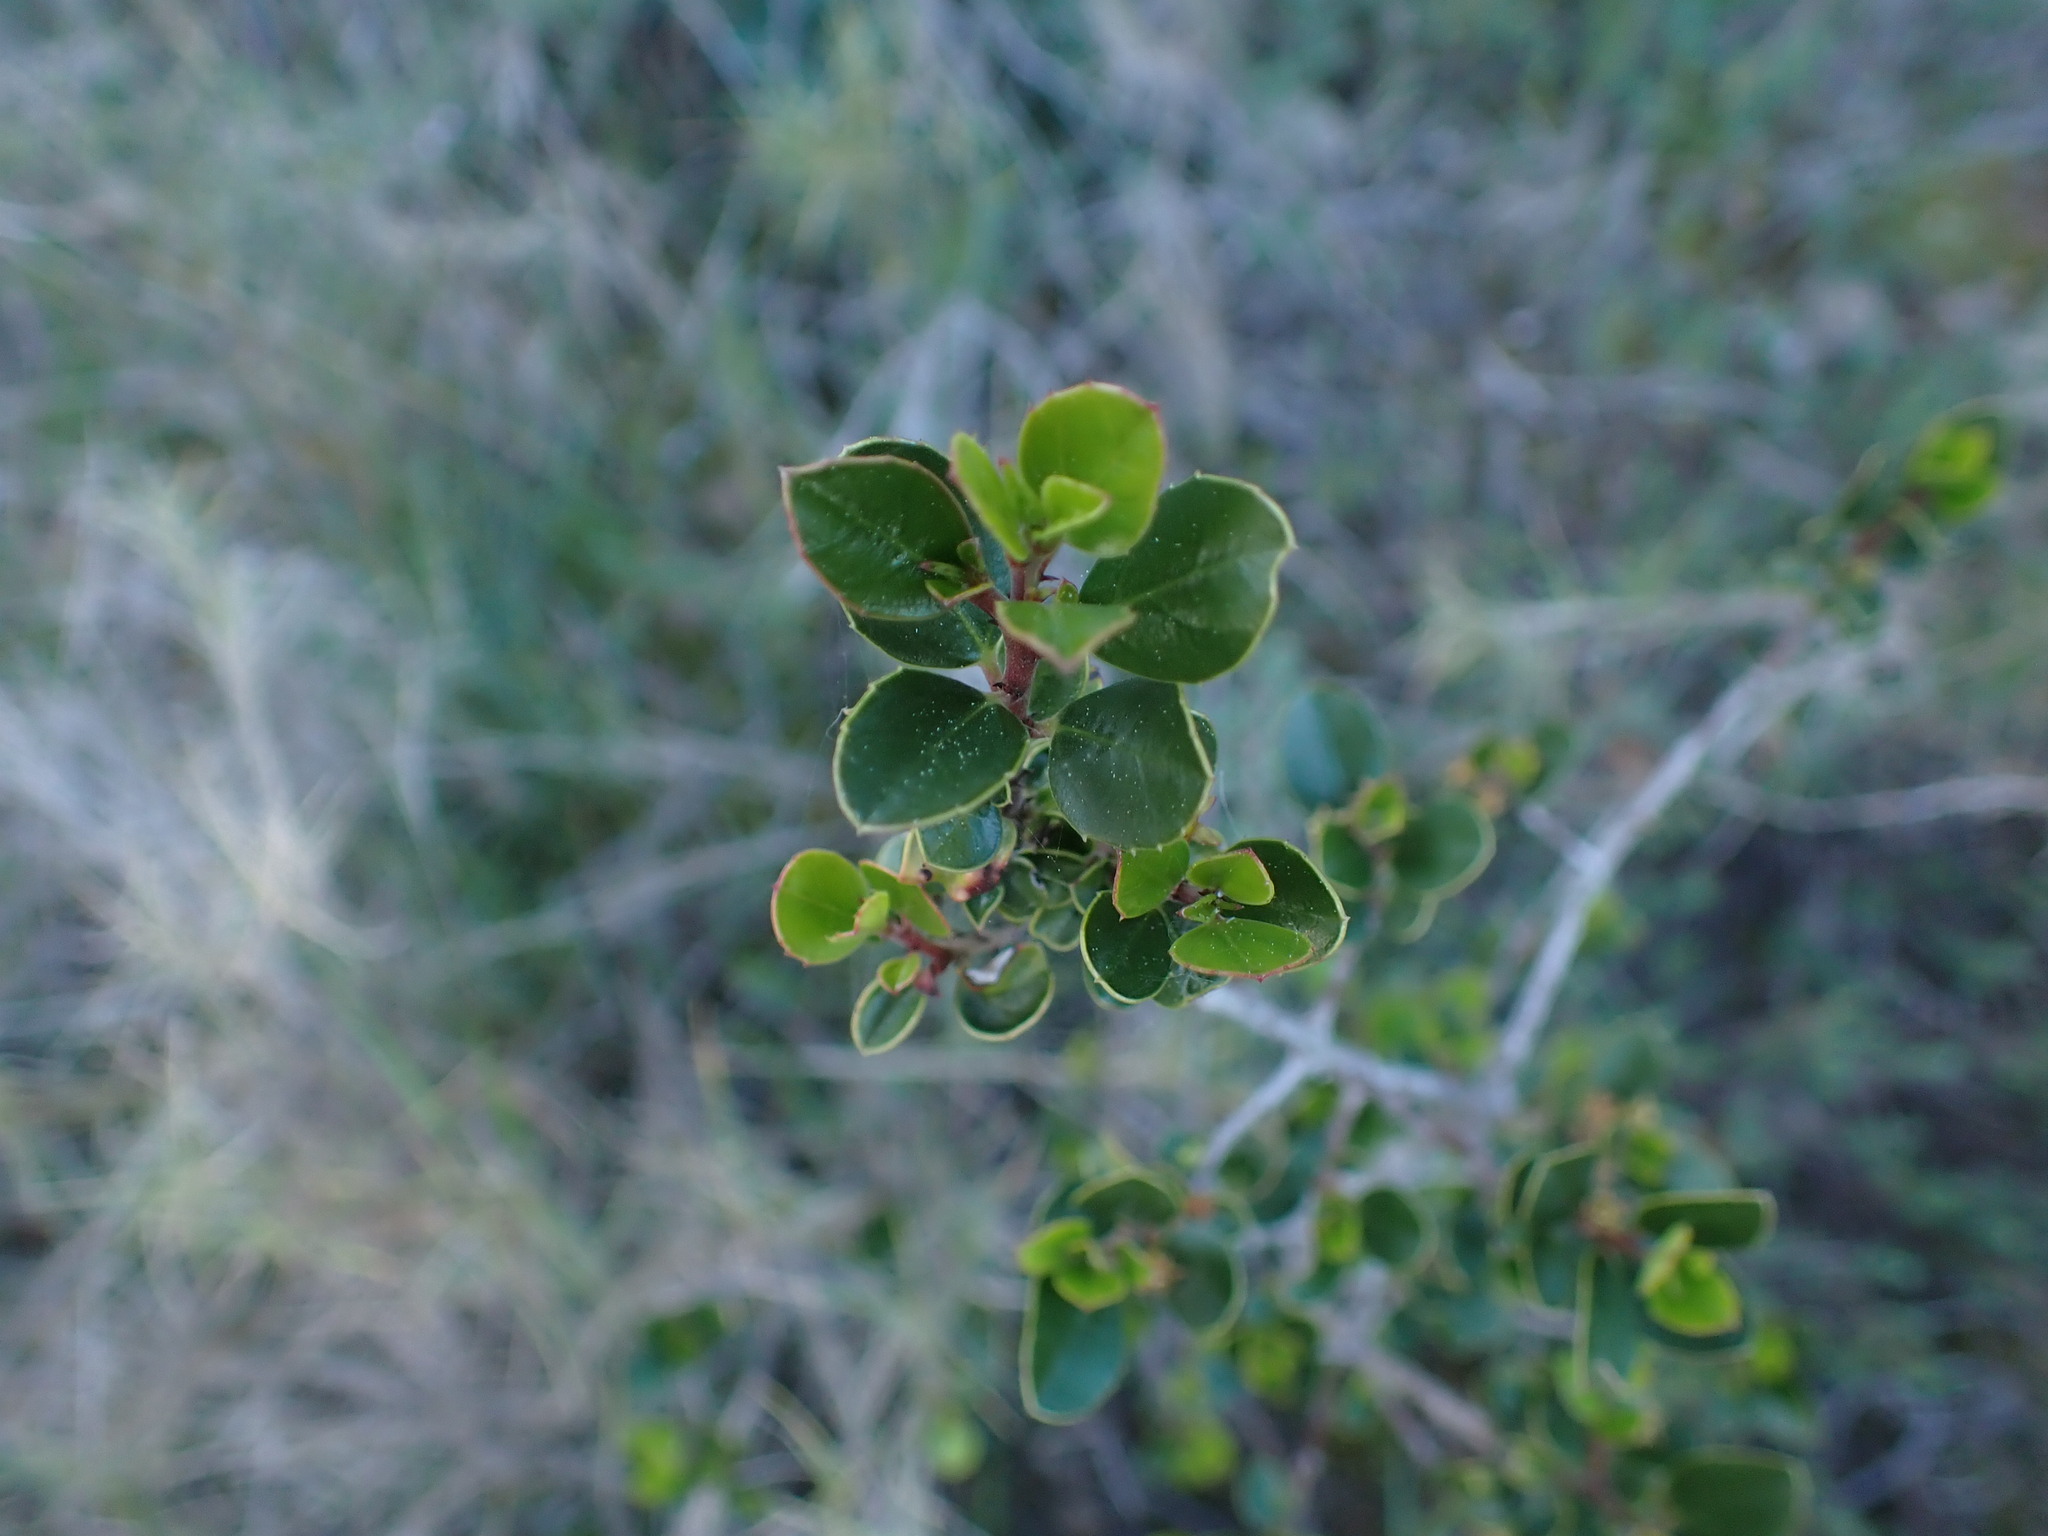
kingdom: Plantae
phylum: Tracheophyta
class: Magnoliopsida
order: Rosales
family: Rhamnaceae
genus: Rhamnus
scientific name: Rhamnus alaternus
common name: Mediterranean buckthorn
